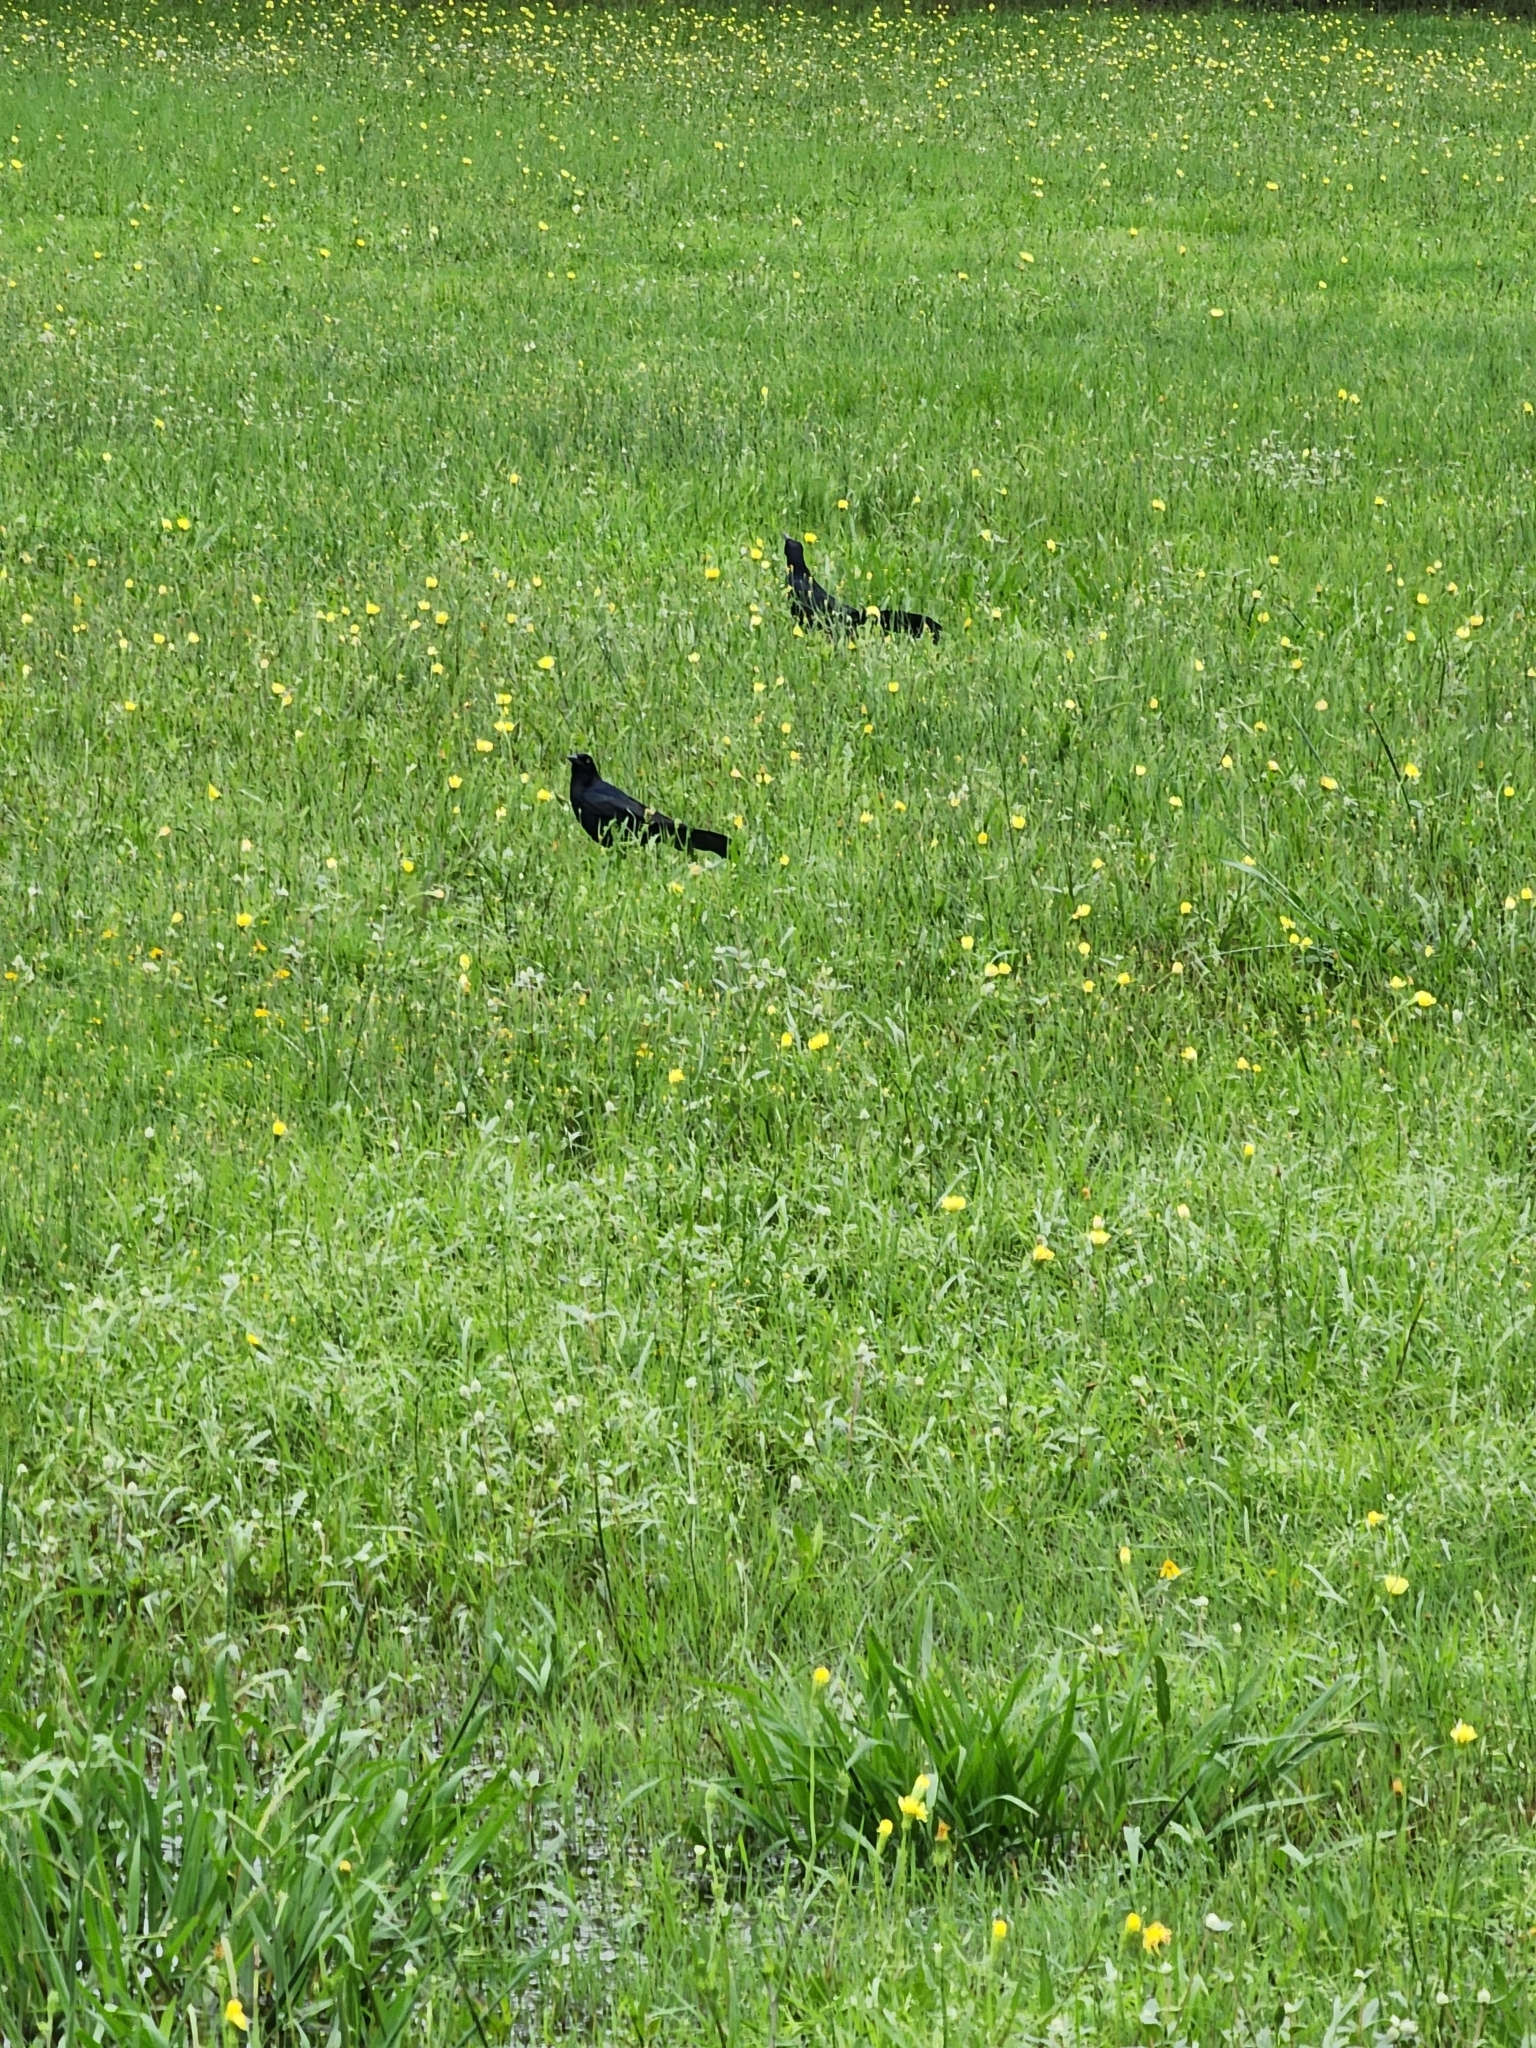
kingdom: Animalia
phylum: Chordata
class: Aves
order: Passeriformes
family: Icteridae
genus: Quiscalus
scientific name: Quiscalus mexicanus
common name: Great-tailed grackle
